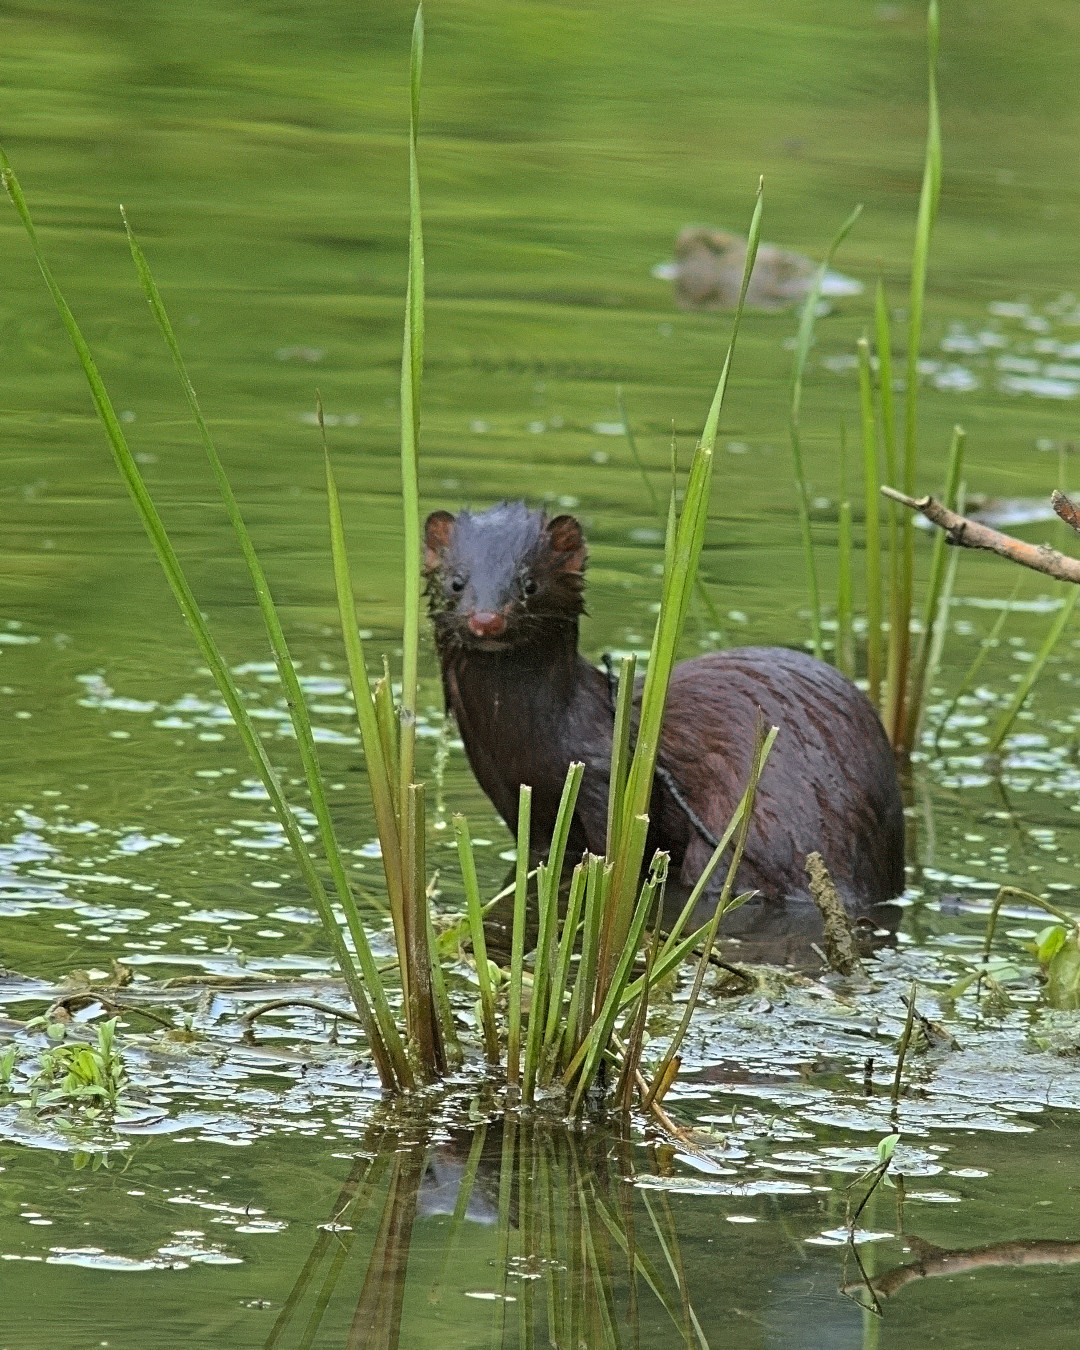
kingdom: Animalia
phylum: Chordata
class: Mammalia
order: Carnivora
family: Mustelidae
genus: Mustela
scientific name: Mustela
